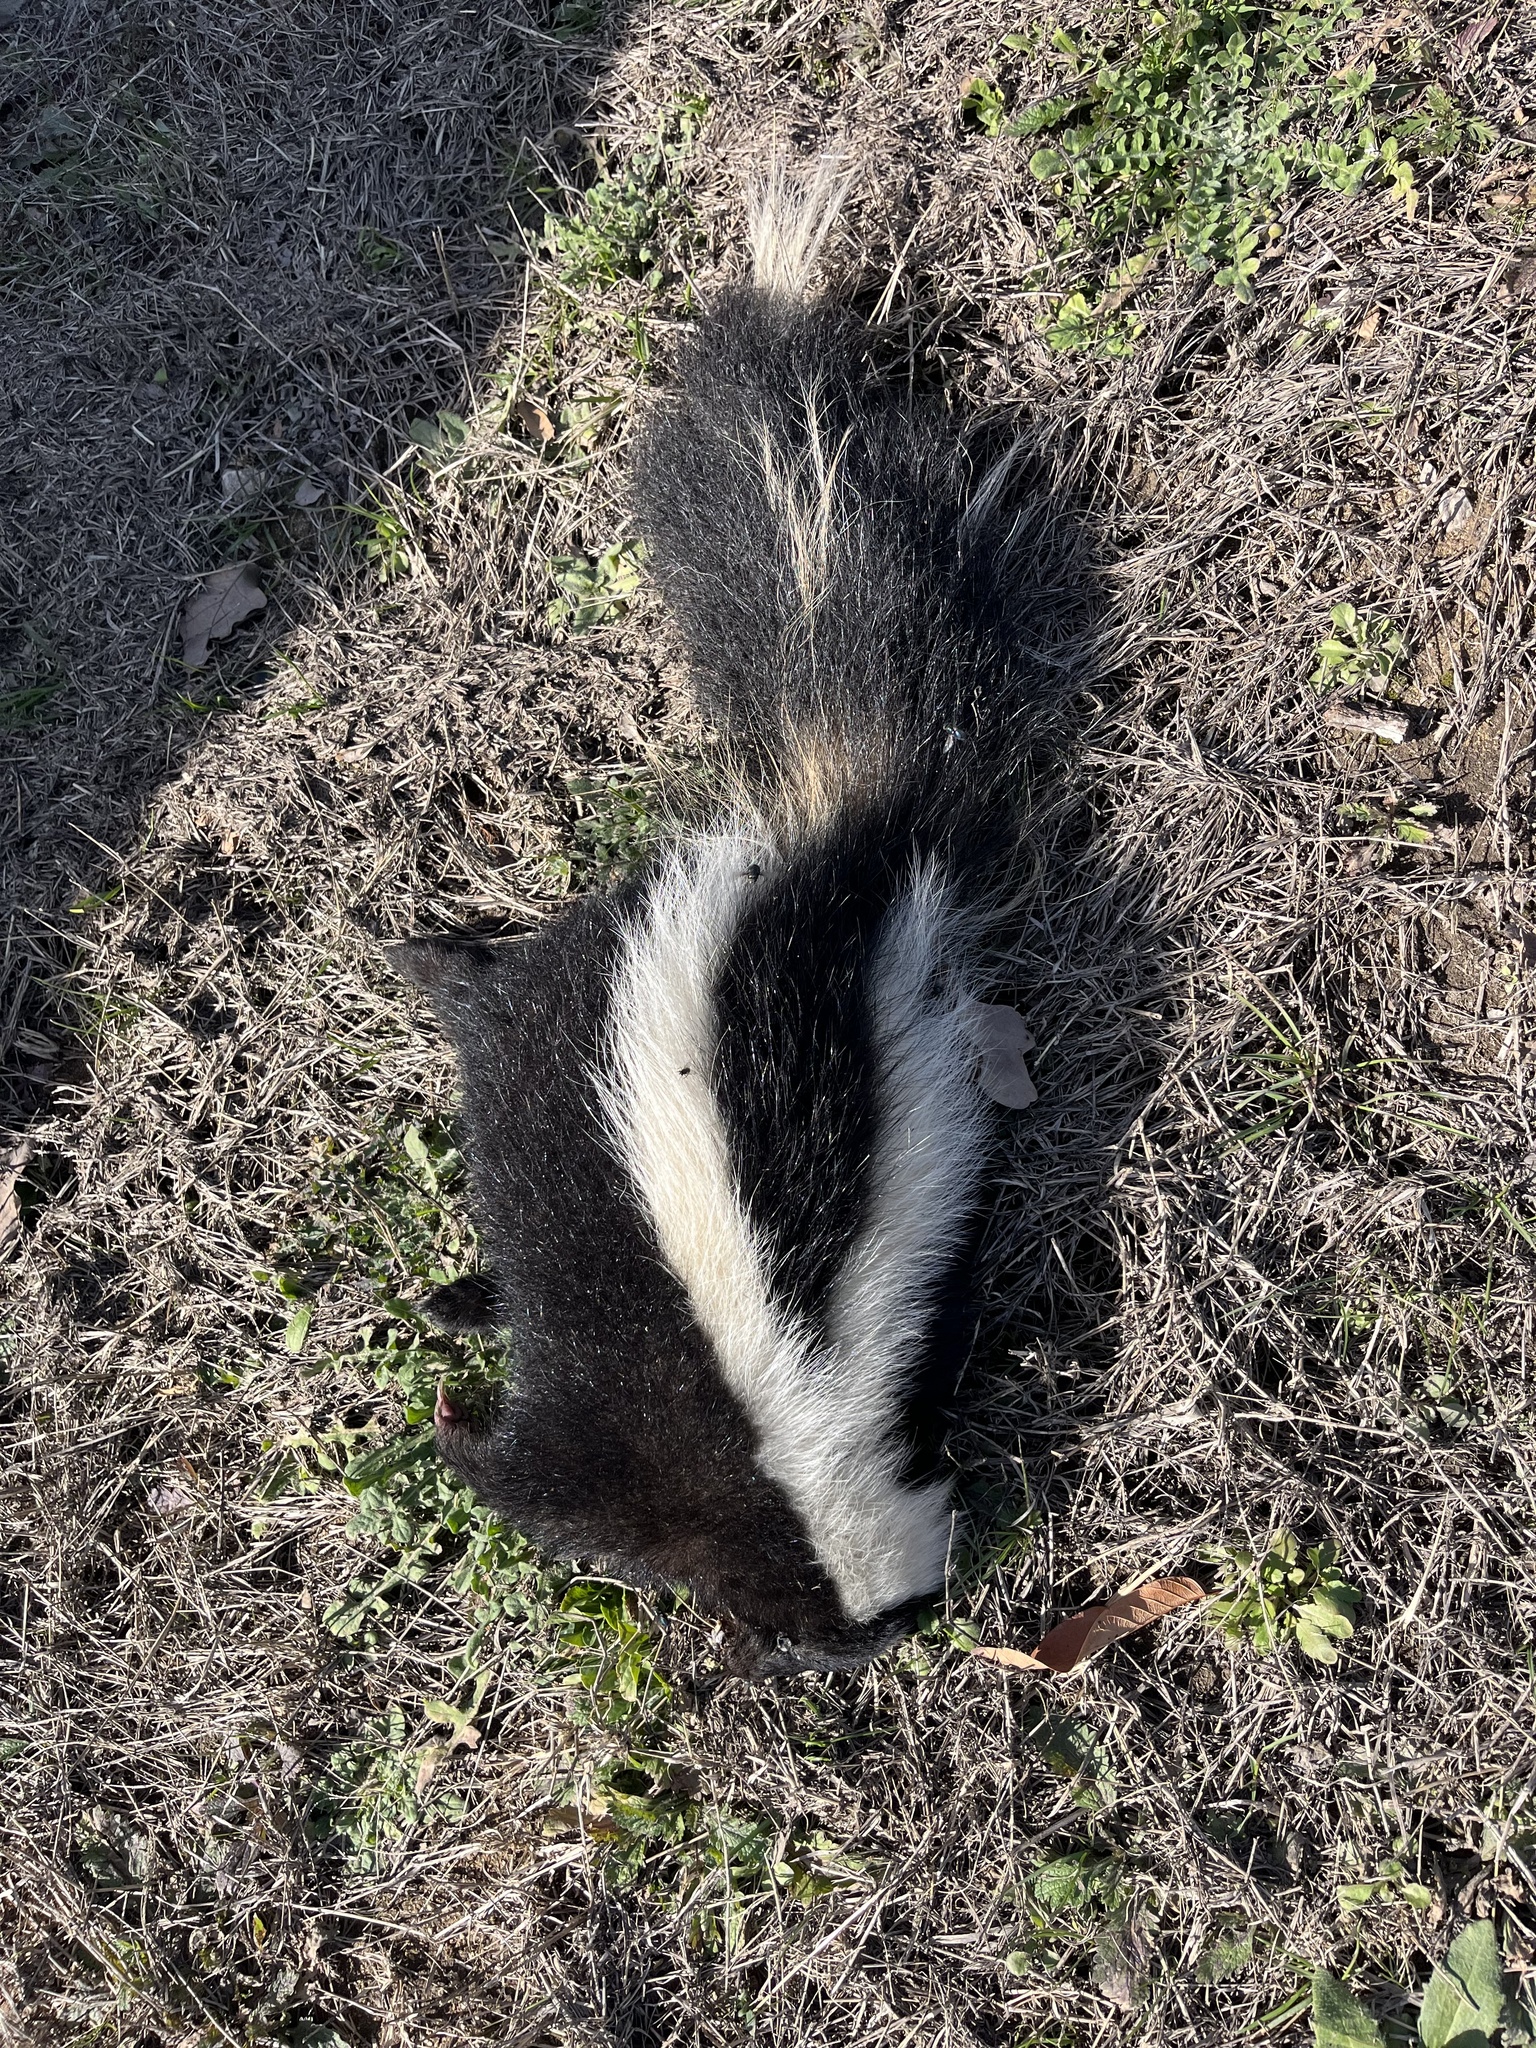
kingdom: Animalia
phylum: Chordata
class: Mammalia
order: Carnivora
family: Mephitidae
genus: Mephitis
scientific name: Mephitis mephitis
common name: Striped skunk
